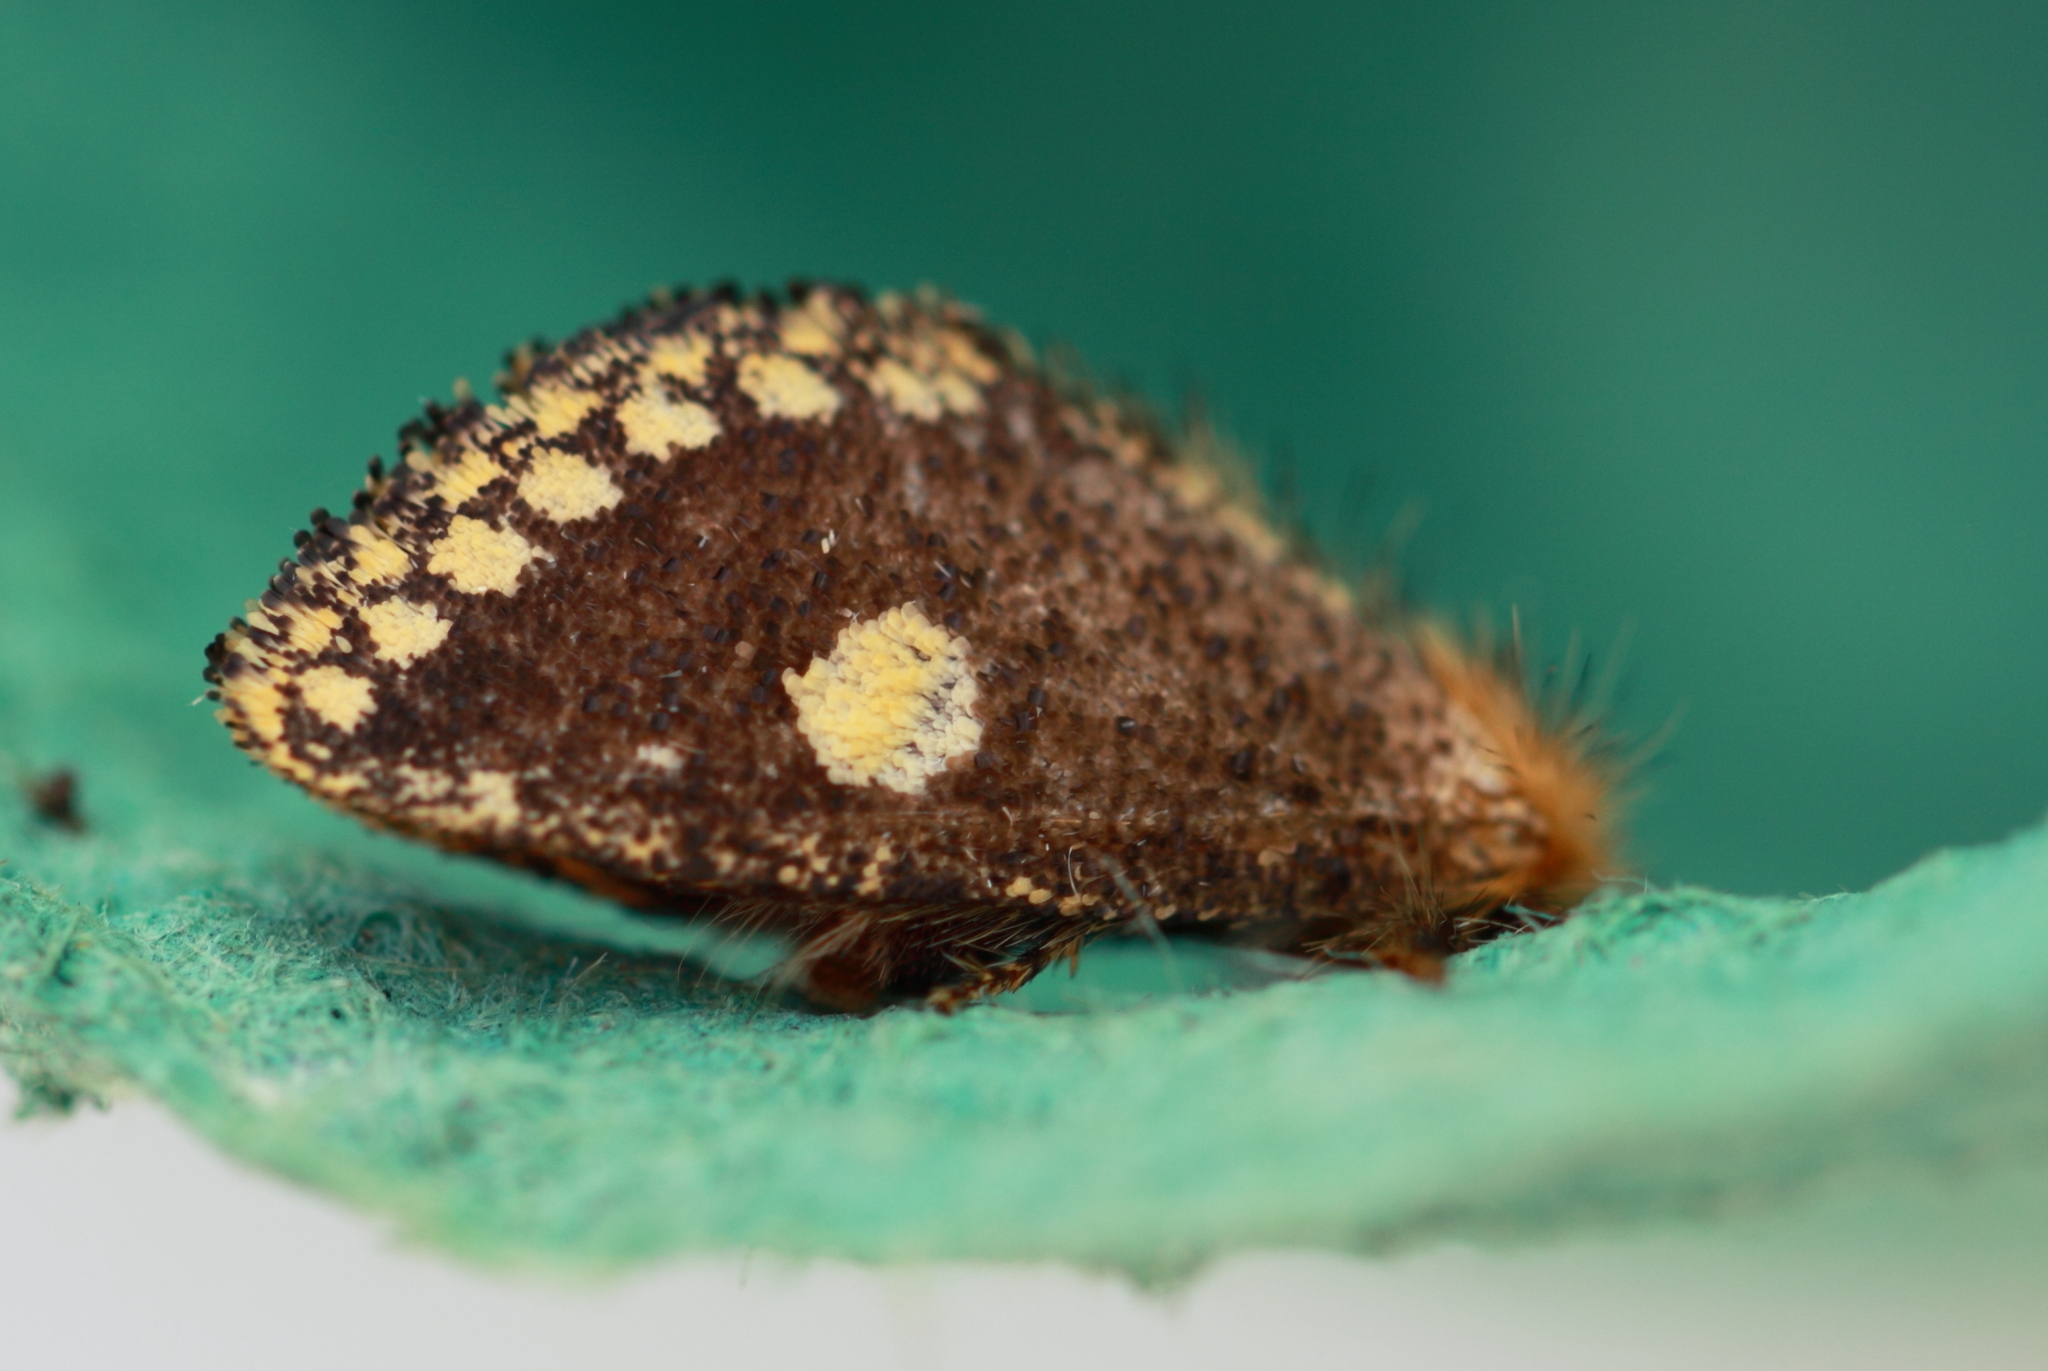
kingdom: Animalia
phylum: Arthropoda
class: Insecta
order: Lepidoptera
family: Notodontidae
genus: Epicoma
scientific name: Epicoma protrahens
